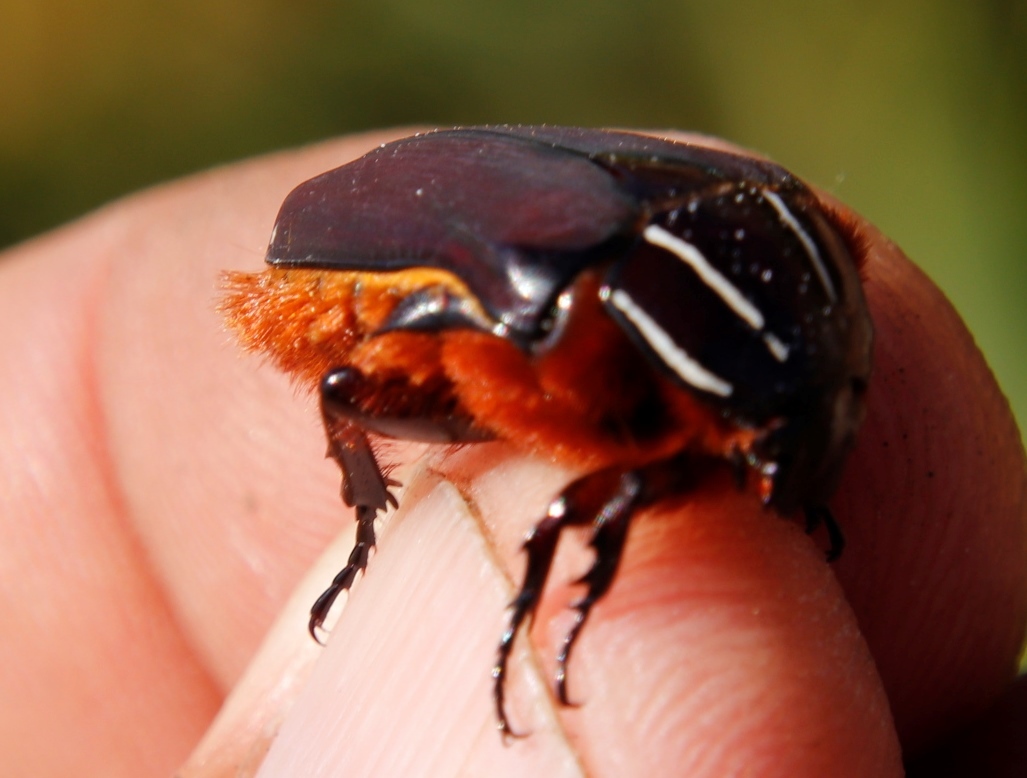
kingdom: Animalia
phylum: Arthropoda
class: Insecta
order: Coleoptera
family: Scarabaeidae
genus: Trichostetha
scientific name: Trichostetha fascicularis
